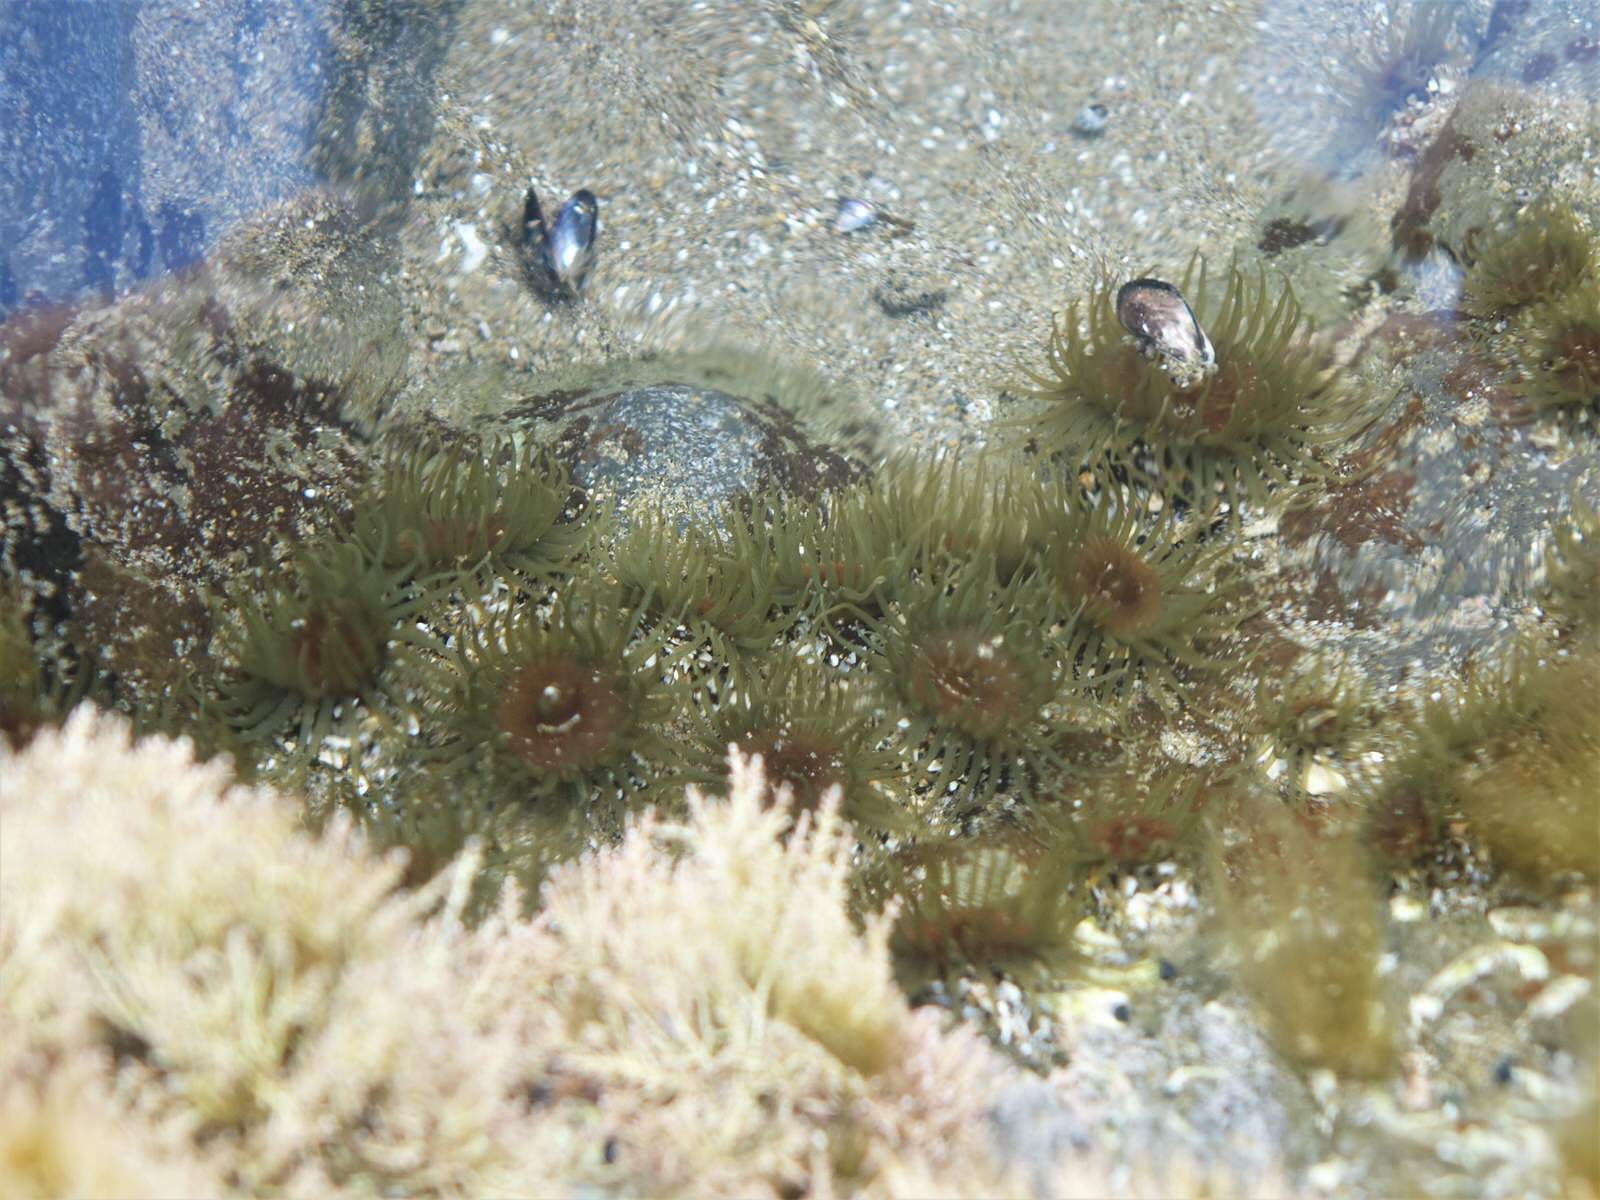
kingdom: Animalia
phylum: Cnidaria
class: Anthozoa
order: Actiniaria
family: Actiniidae
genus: Isactinia
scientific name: Isactinia olivacea
